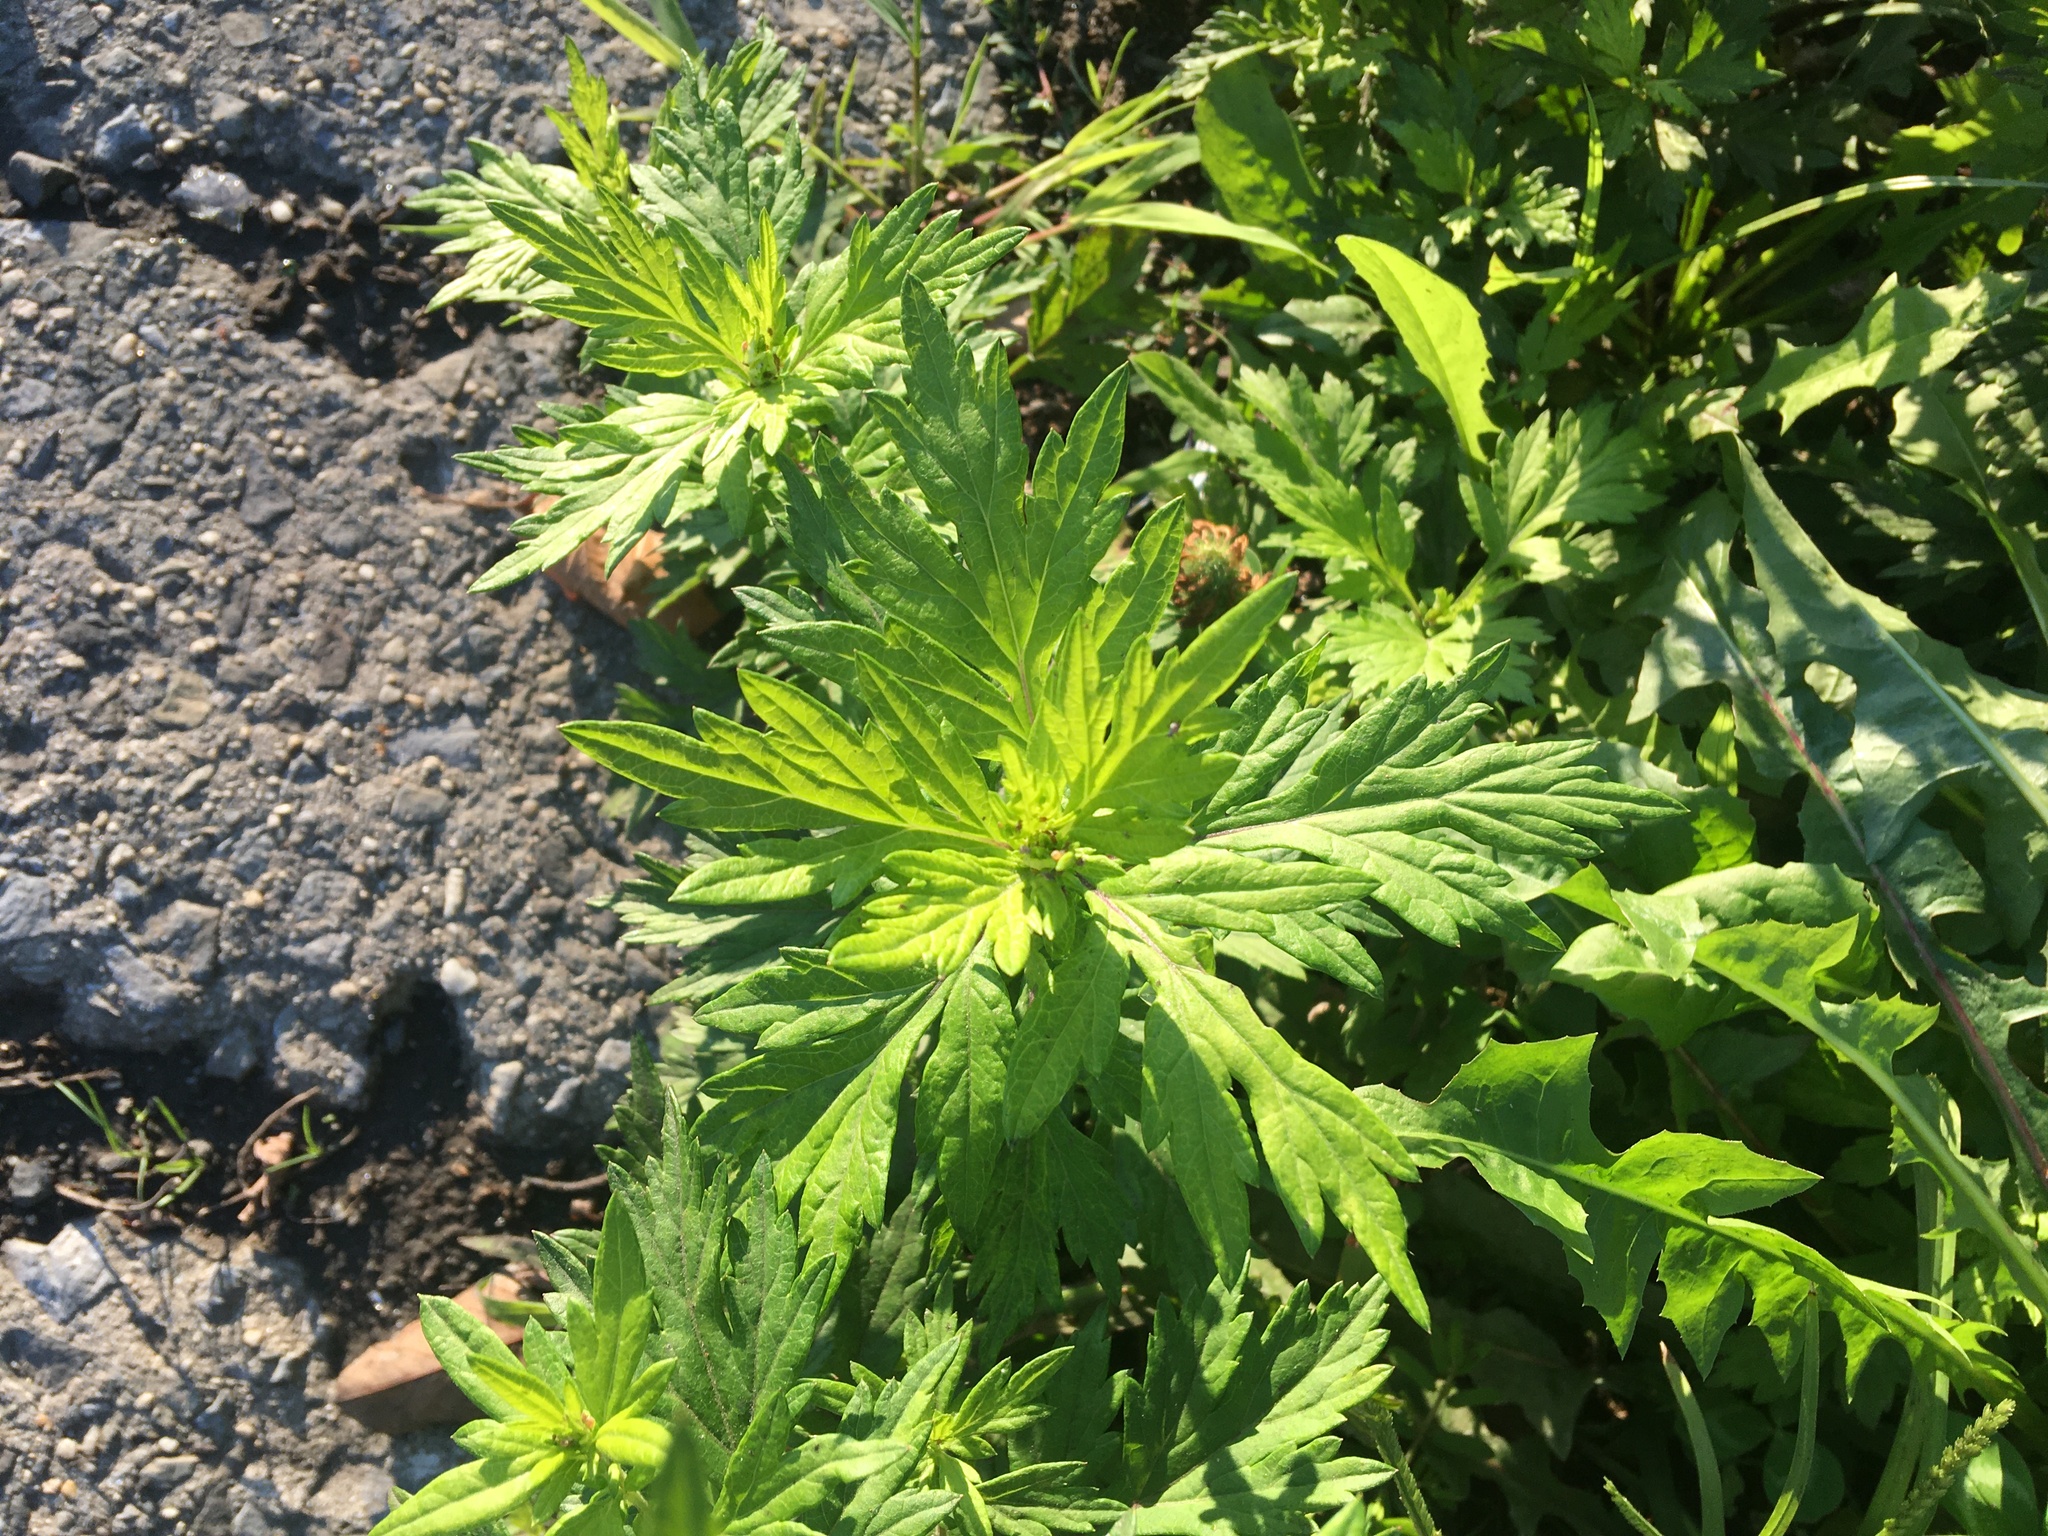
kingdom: Plantae
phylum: Tracheophyta
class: Magnoliopsida
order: Asterales
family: Asteraceae
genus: Artemisia
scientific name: Artemisia vulgaris
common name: Mugwort
